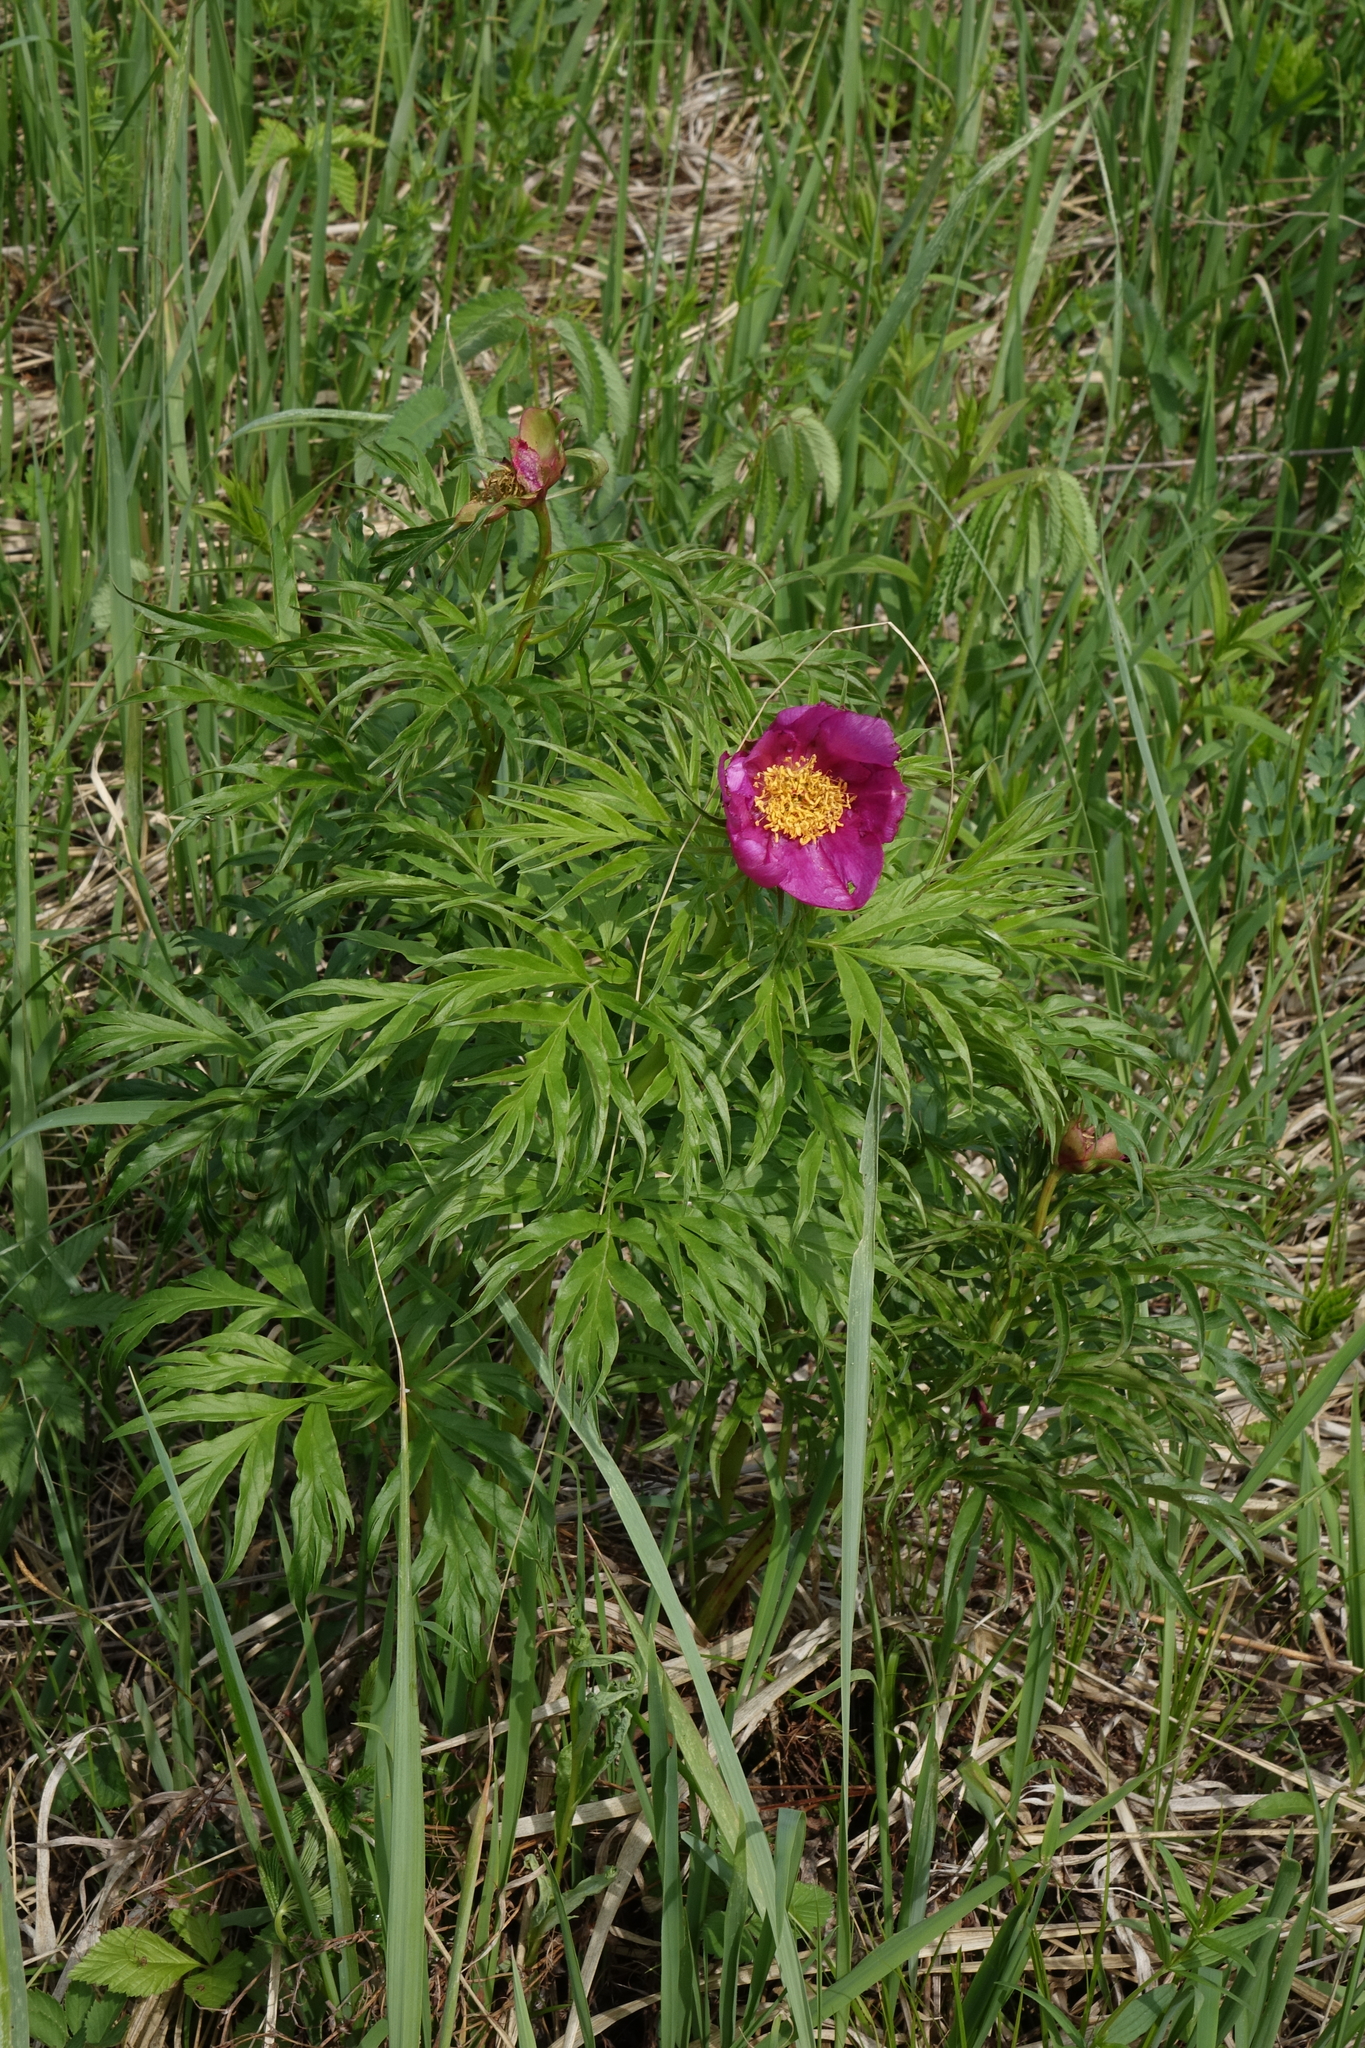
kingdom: Plantae
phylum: Tracheophyta
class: Magnoliopsida
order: Saxifragales
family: Paeoniaceae
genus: Paeonia
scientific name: Paeonia anomala
